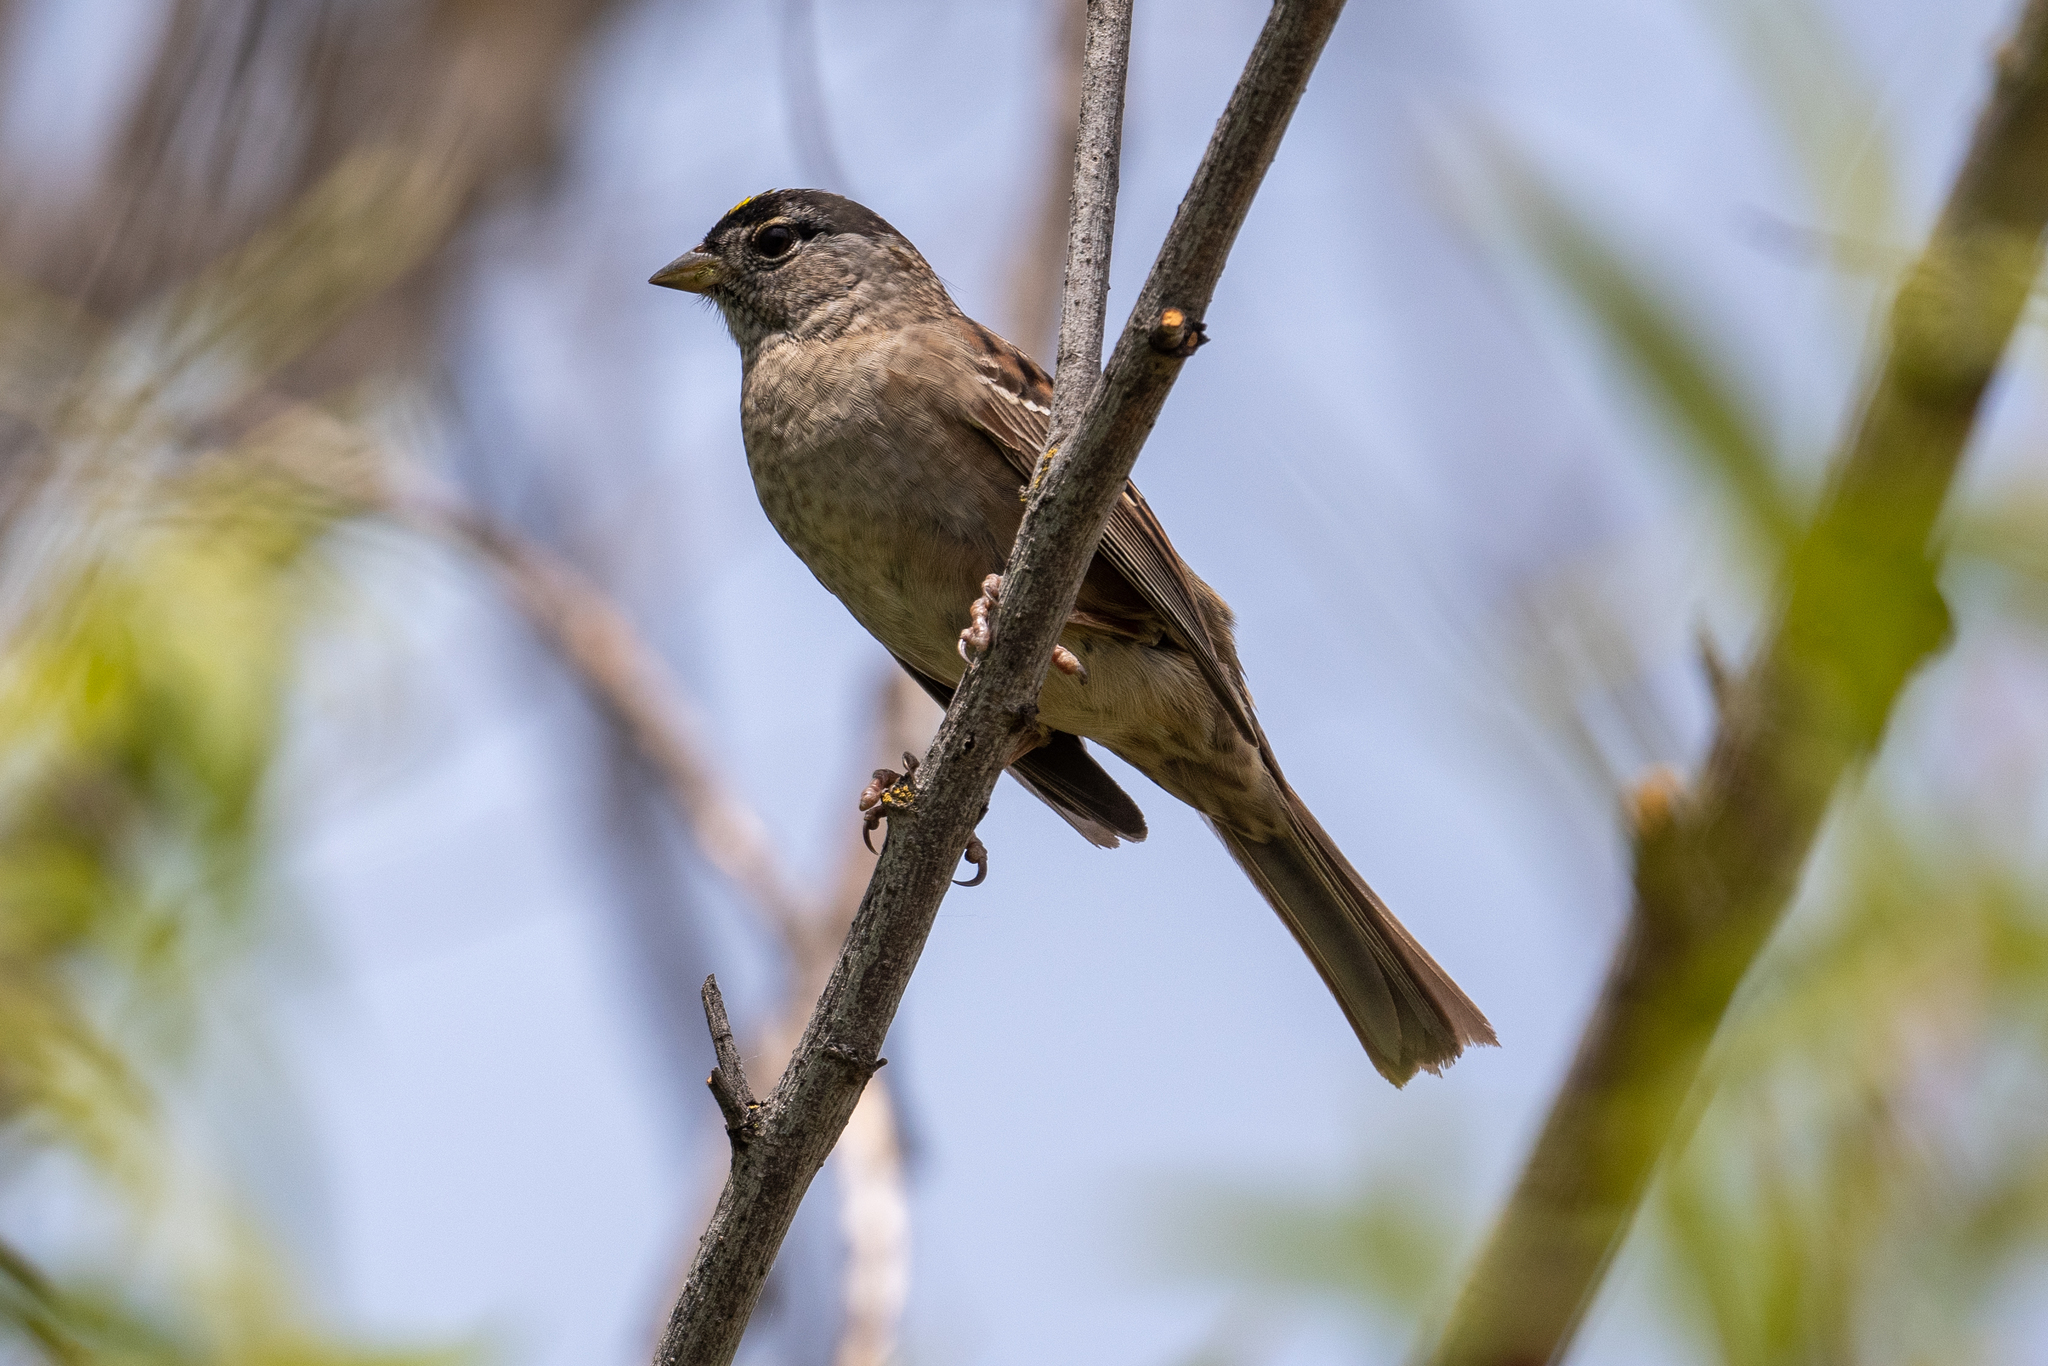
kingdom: Animalia
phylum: Chordata
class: Aves
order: Passeriformes
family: Passerellidae
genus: Zonotrichia
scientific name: Zonotrichia atricapilla
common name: Golden-crowned sparrow
